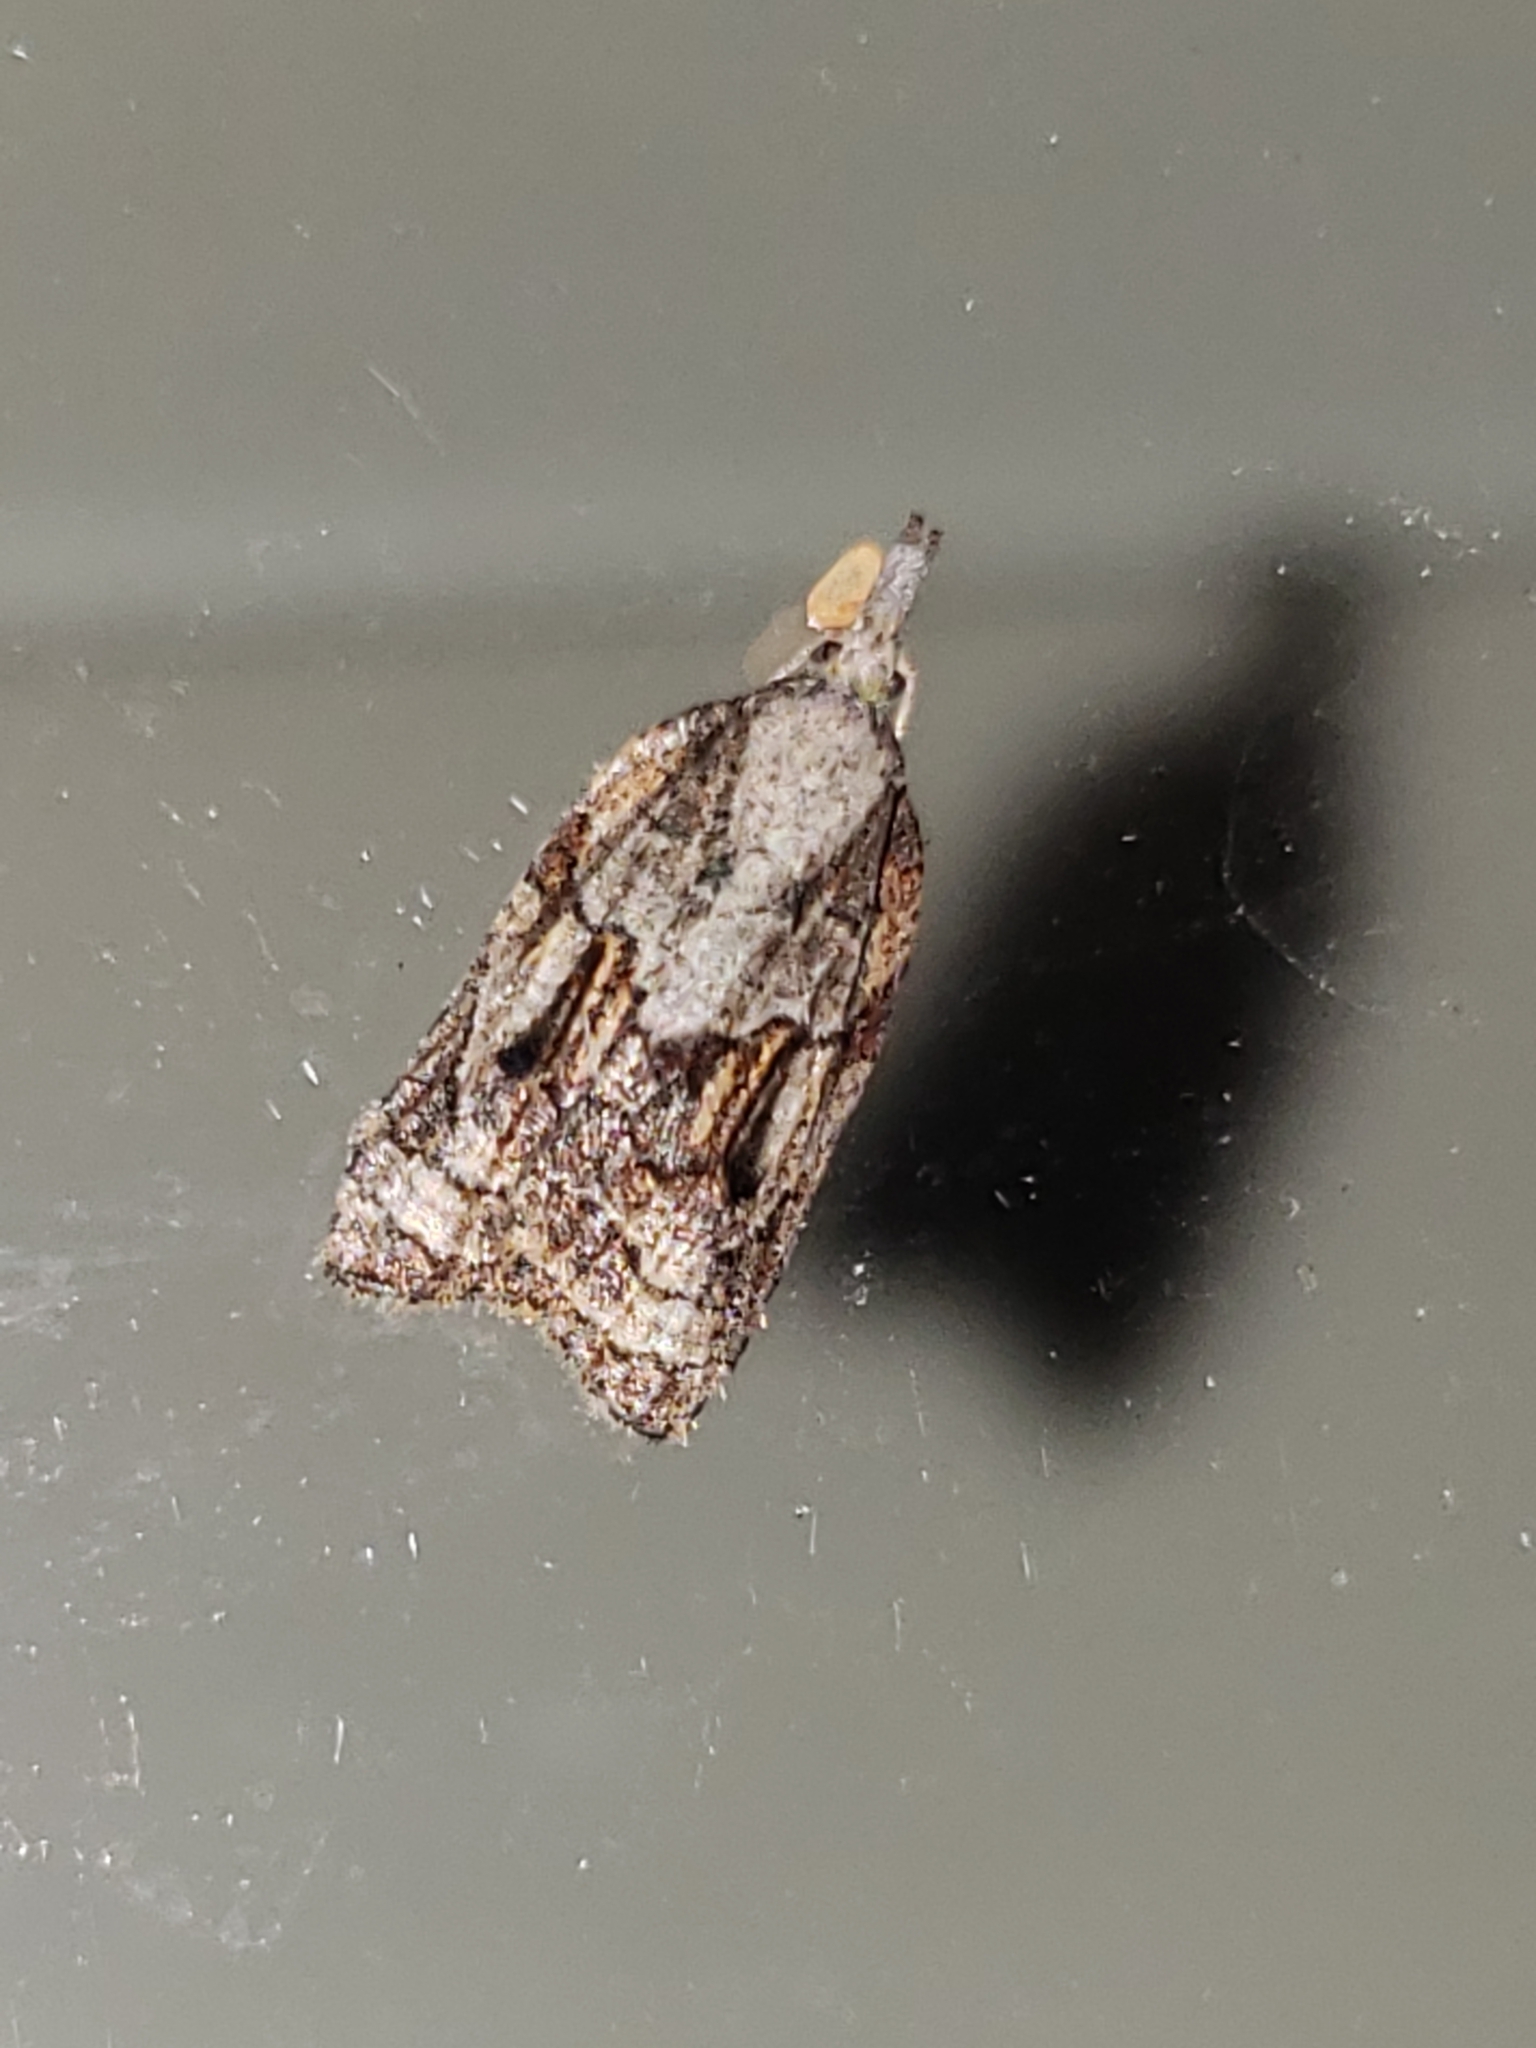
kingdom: Animalia
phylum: Arthropoda
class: Insecta
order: Lepidoptera
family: Tortricidae
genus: Platynota
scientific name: Platynota idaeusalis
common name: Tufted apple bud moth
